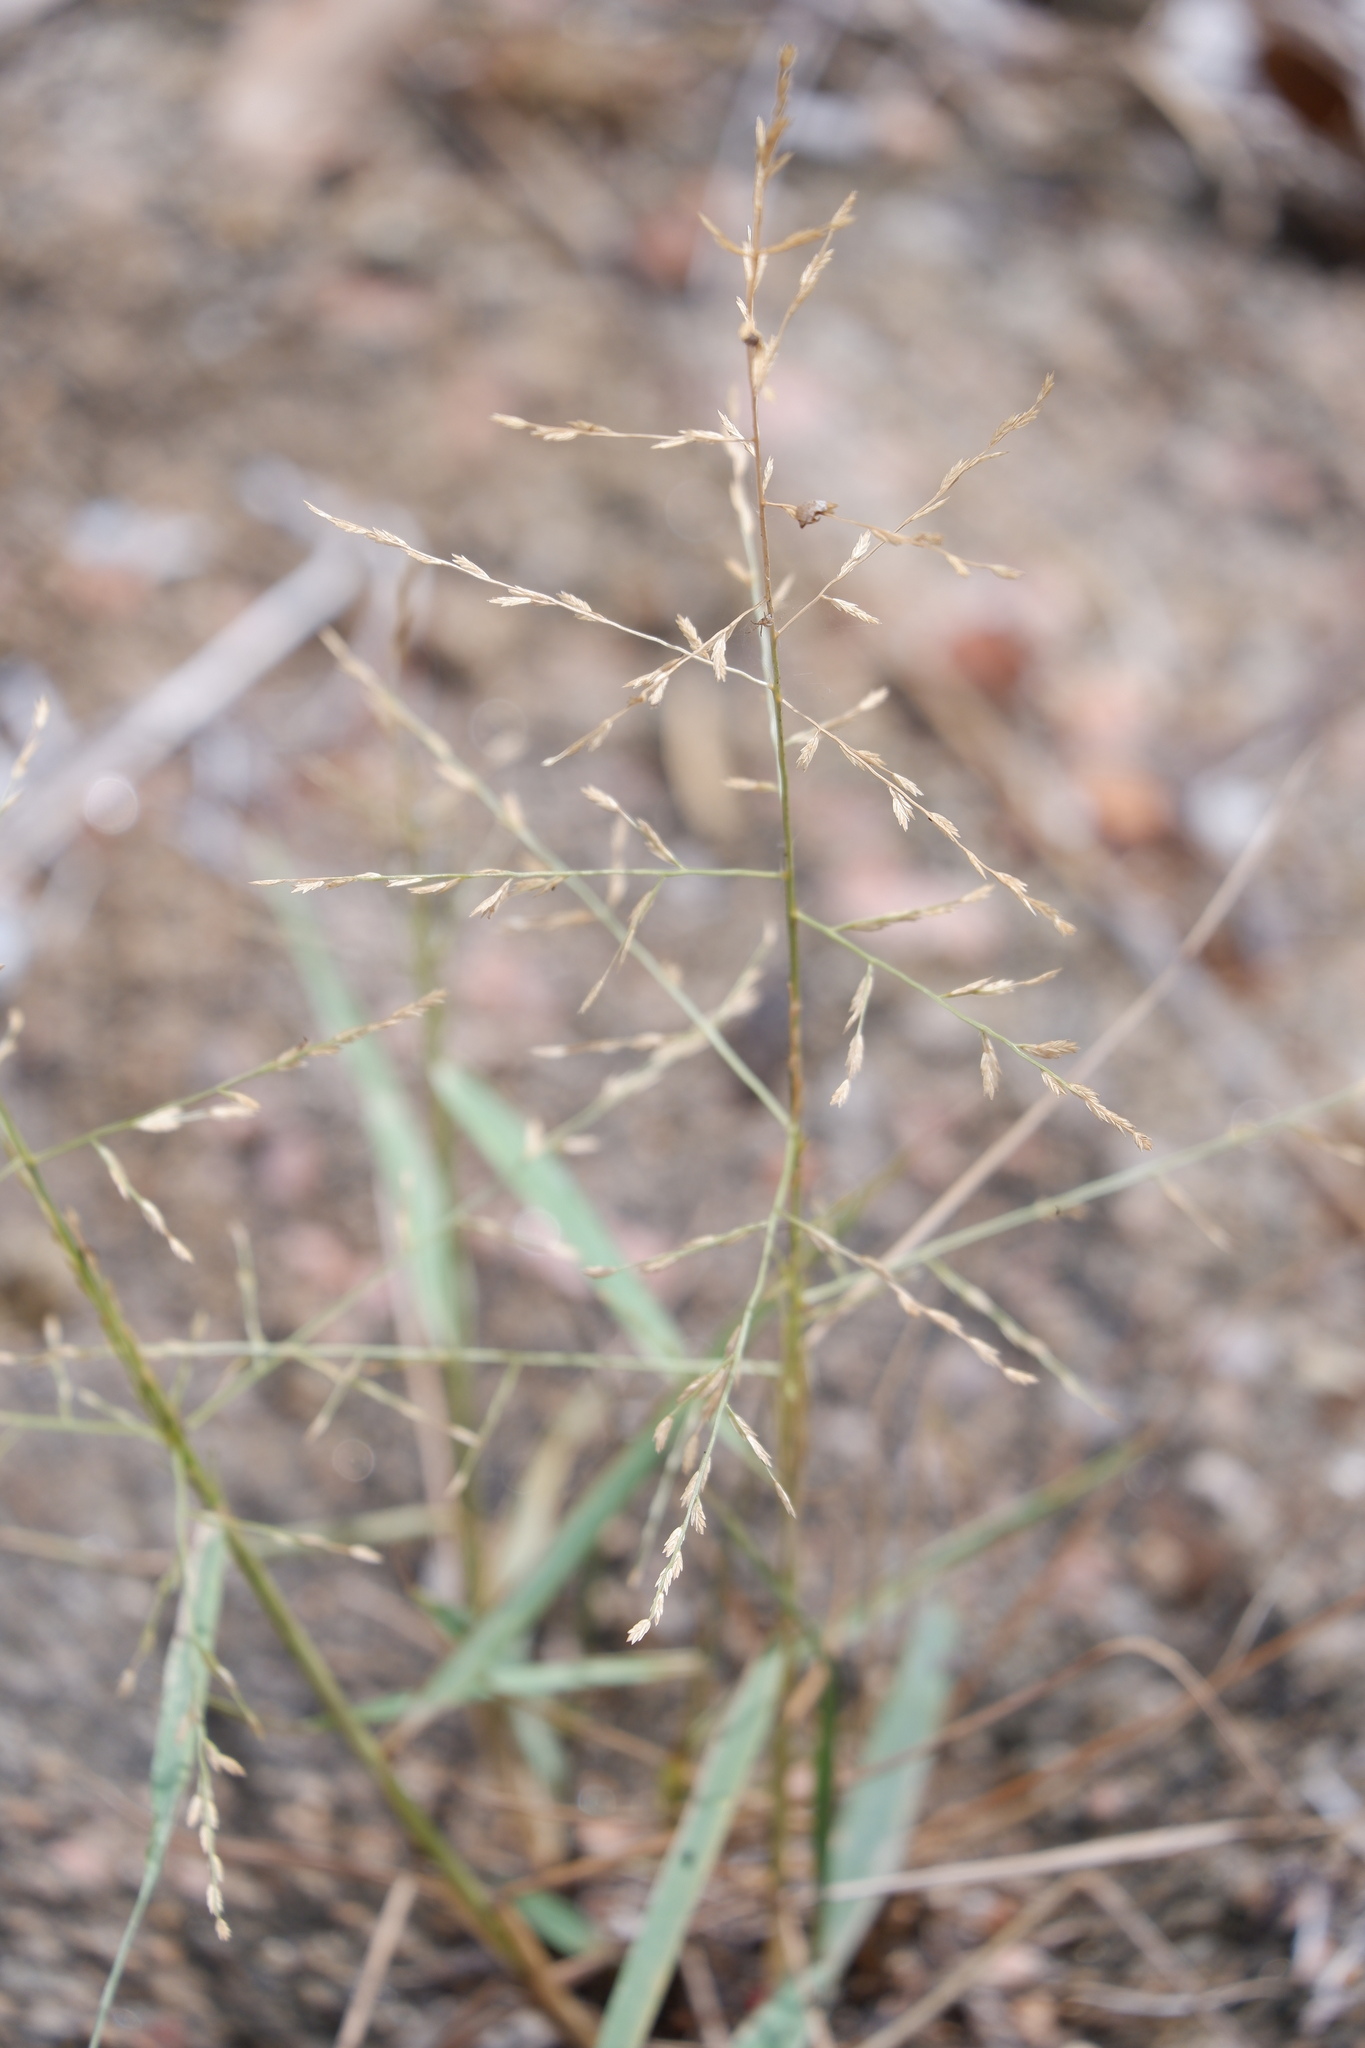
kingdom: Plantae
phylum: Tracheophyta
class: Liliopsida
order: Poales
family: Poaceae
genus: Eragrostis
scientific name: Eragrostis curtipedicellata
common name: Gummy love grass
